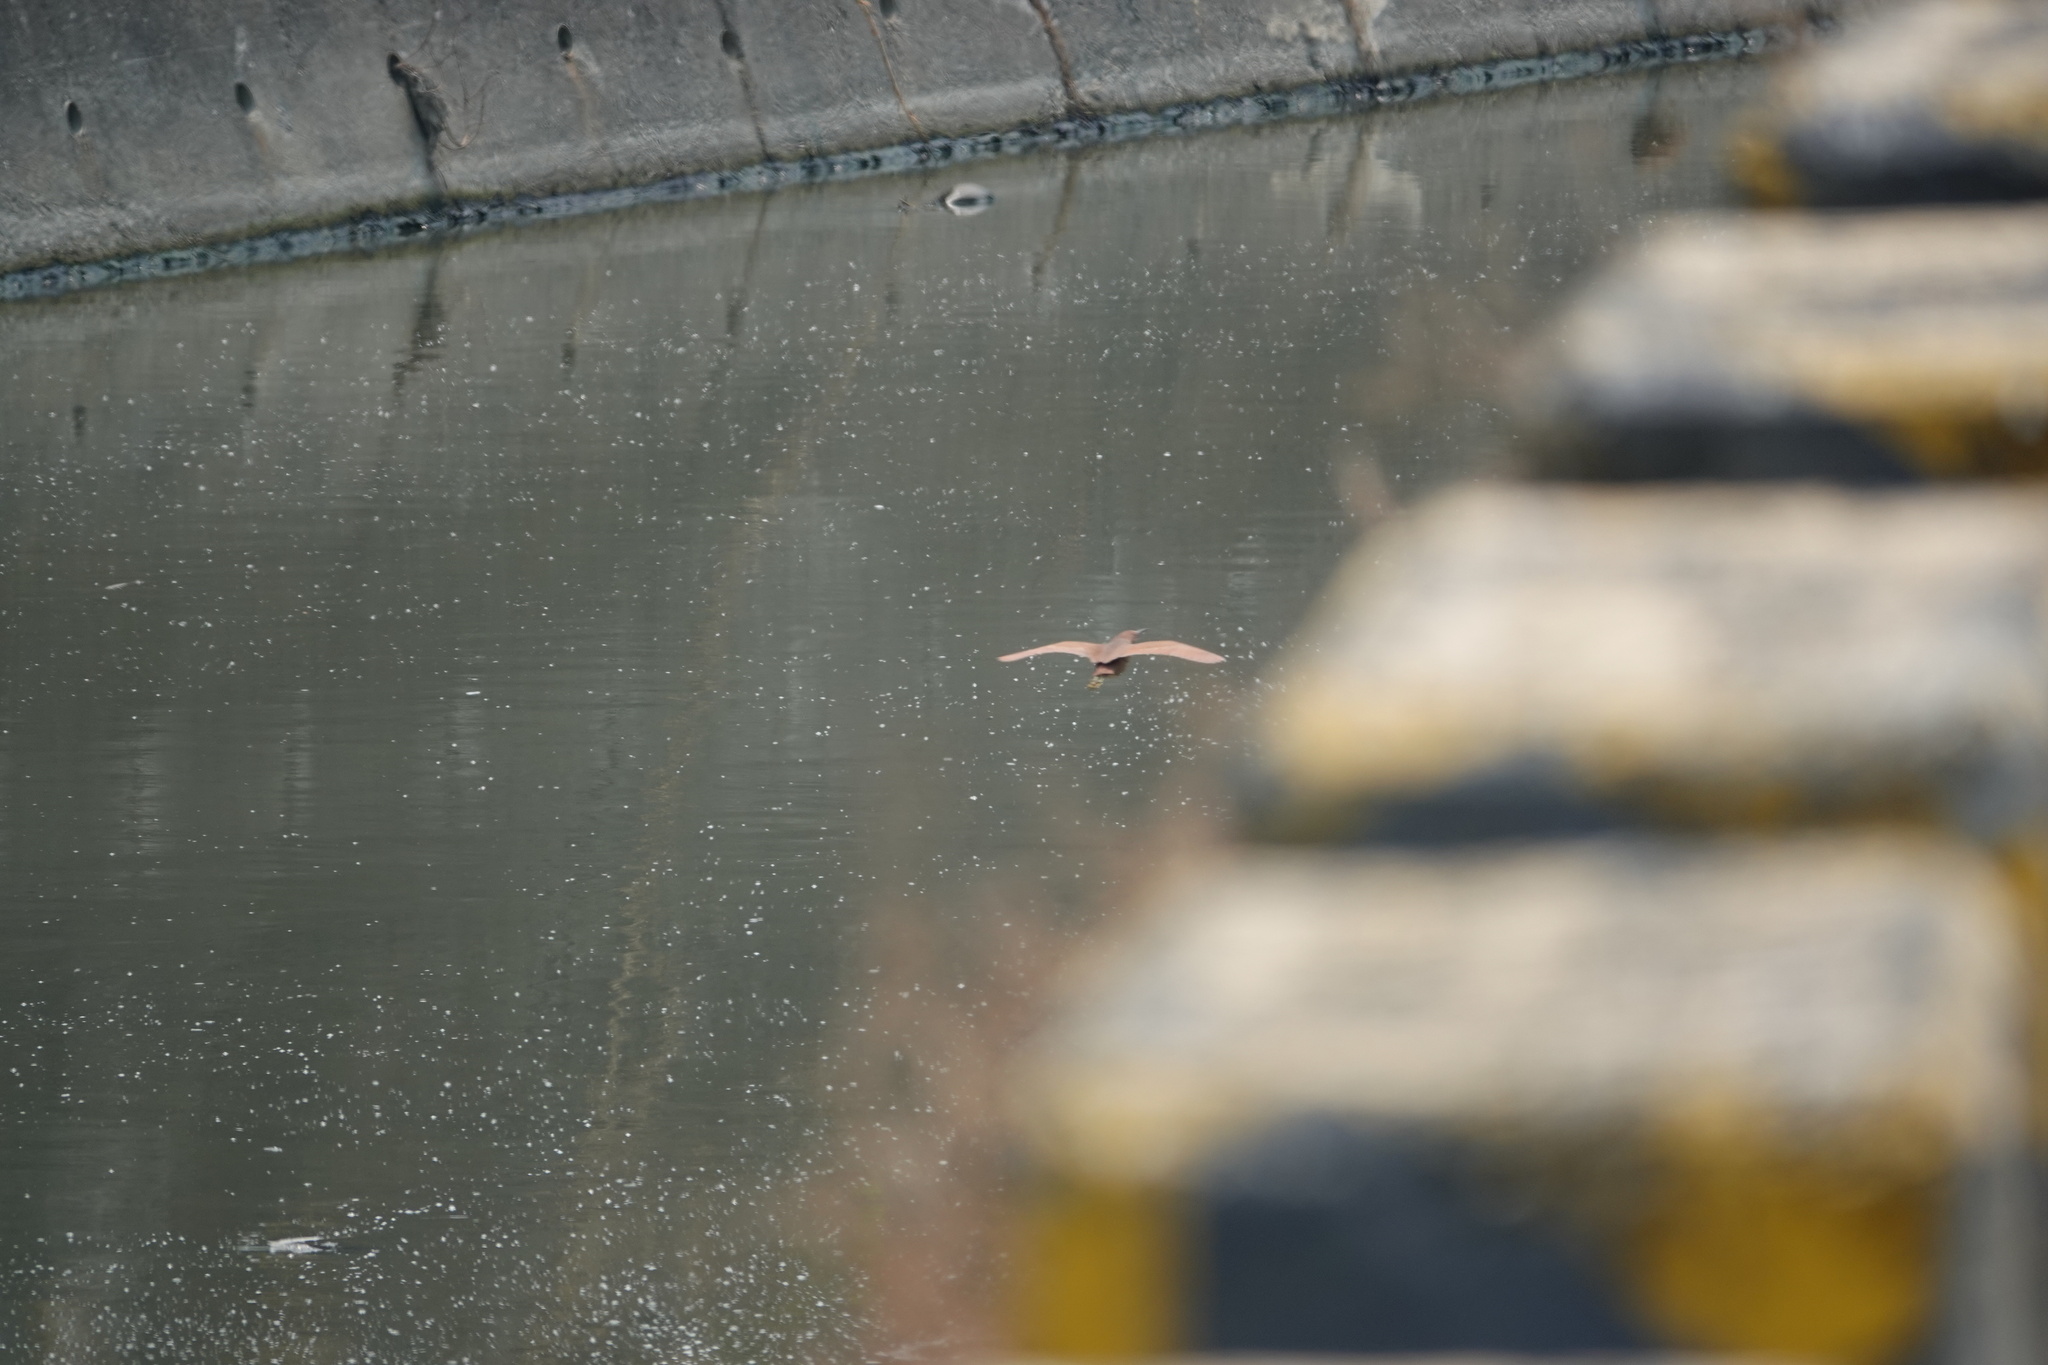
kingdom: Animalia
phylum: Chordata
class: Aves
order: Pelecaniformes
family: Ardeidae
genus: Ixobrychus
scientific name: Ixobrychus cinnamomeus
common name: Cinnamon bittern
